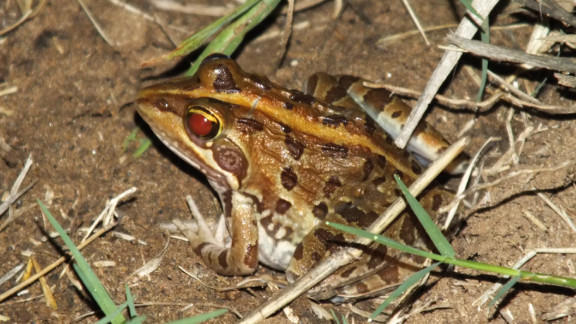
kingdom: Animalia
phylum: Chordata
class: Amphibia
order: Anura
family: Pyxicephalidae
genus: Amietia
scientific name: Amietia delalandii
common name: Delalande's river frog
